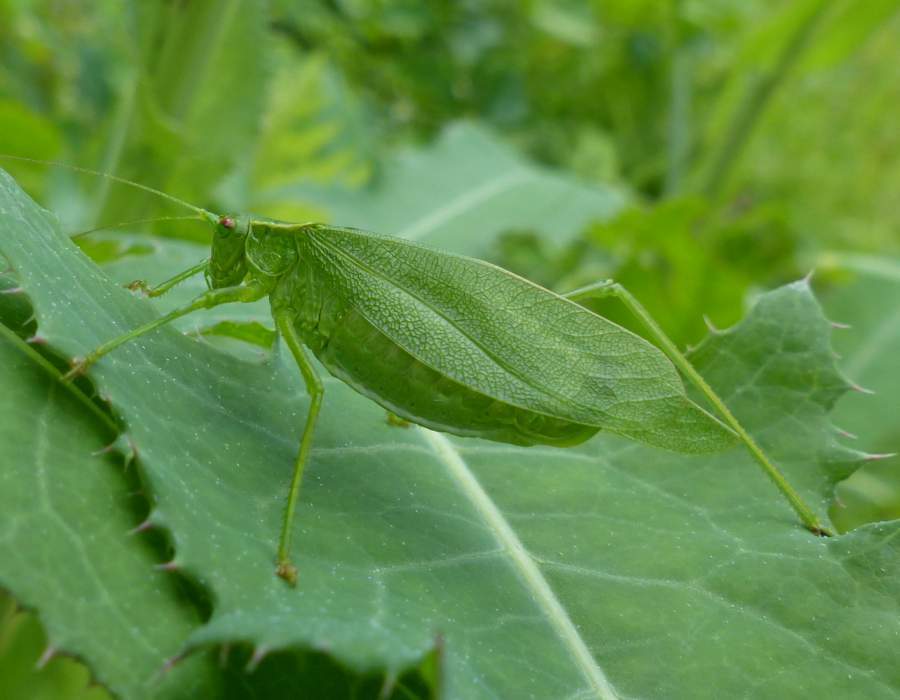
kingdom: Animalia
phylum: Arthropoda
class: Insecta
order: Orthoptera
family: Tettigoniidae
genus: Scudderia
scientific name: Scudderia pistillata
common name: Broad-winged bush-katydid
